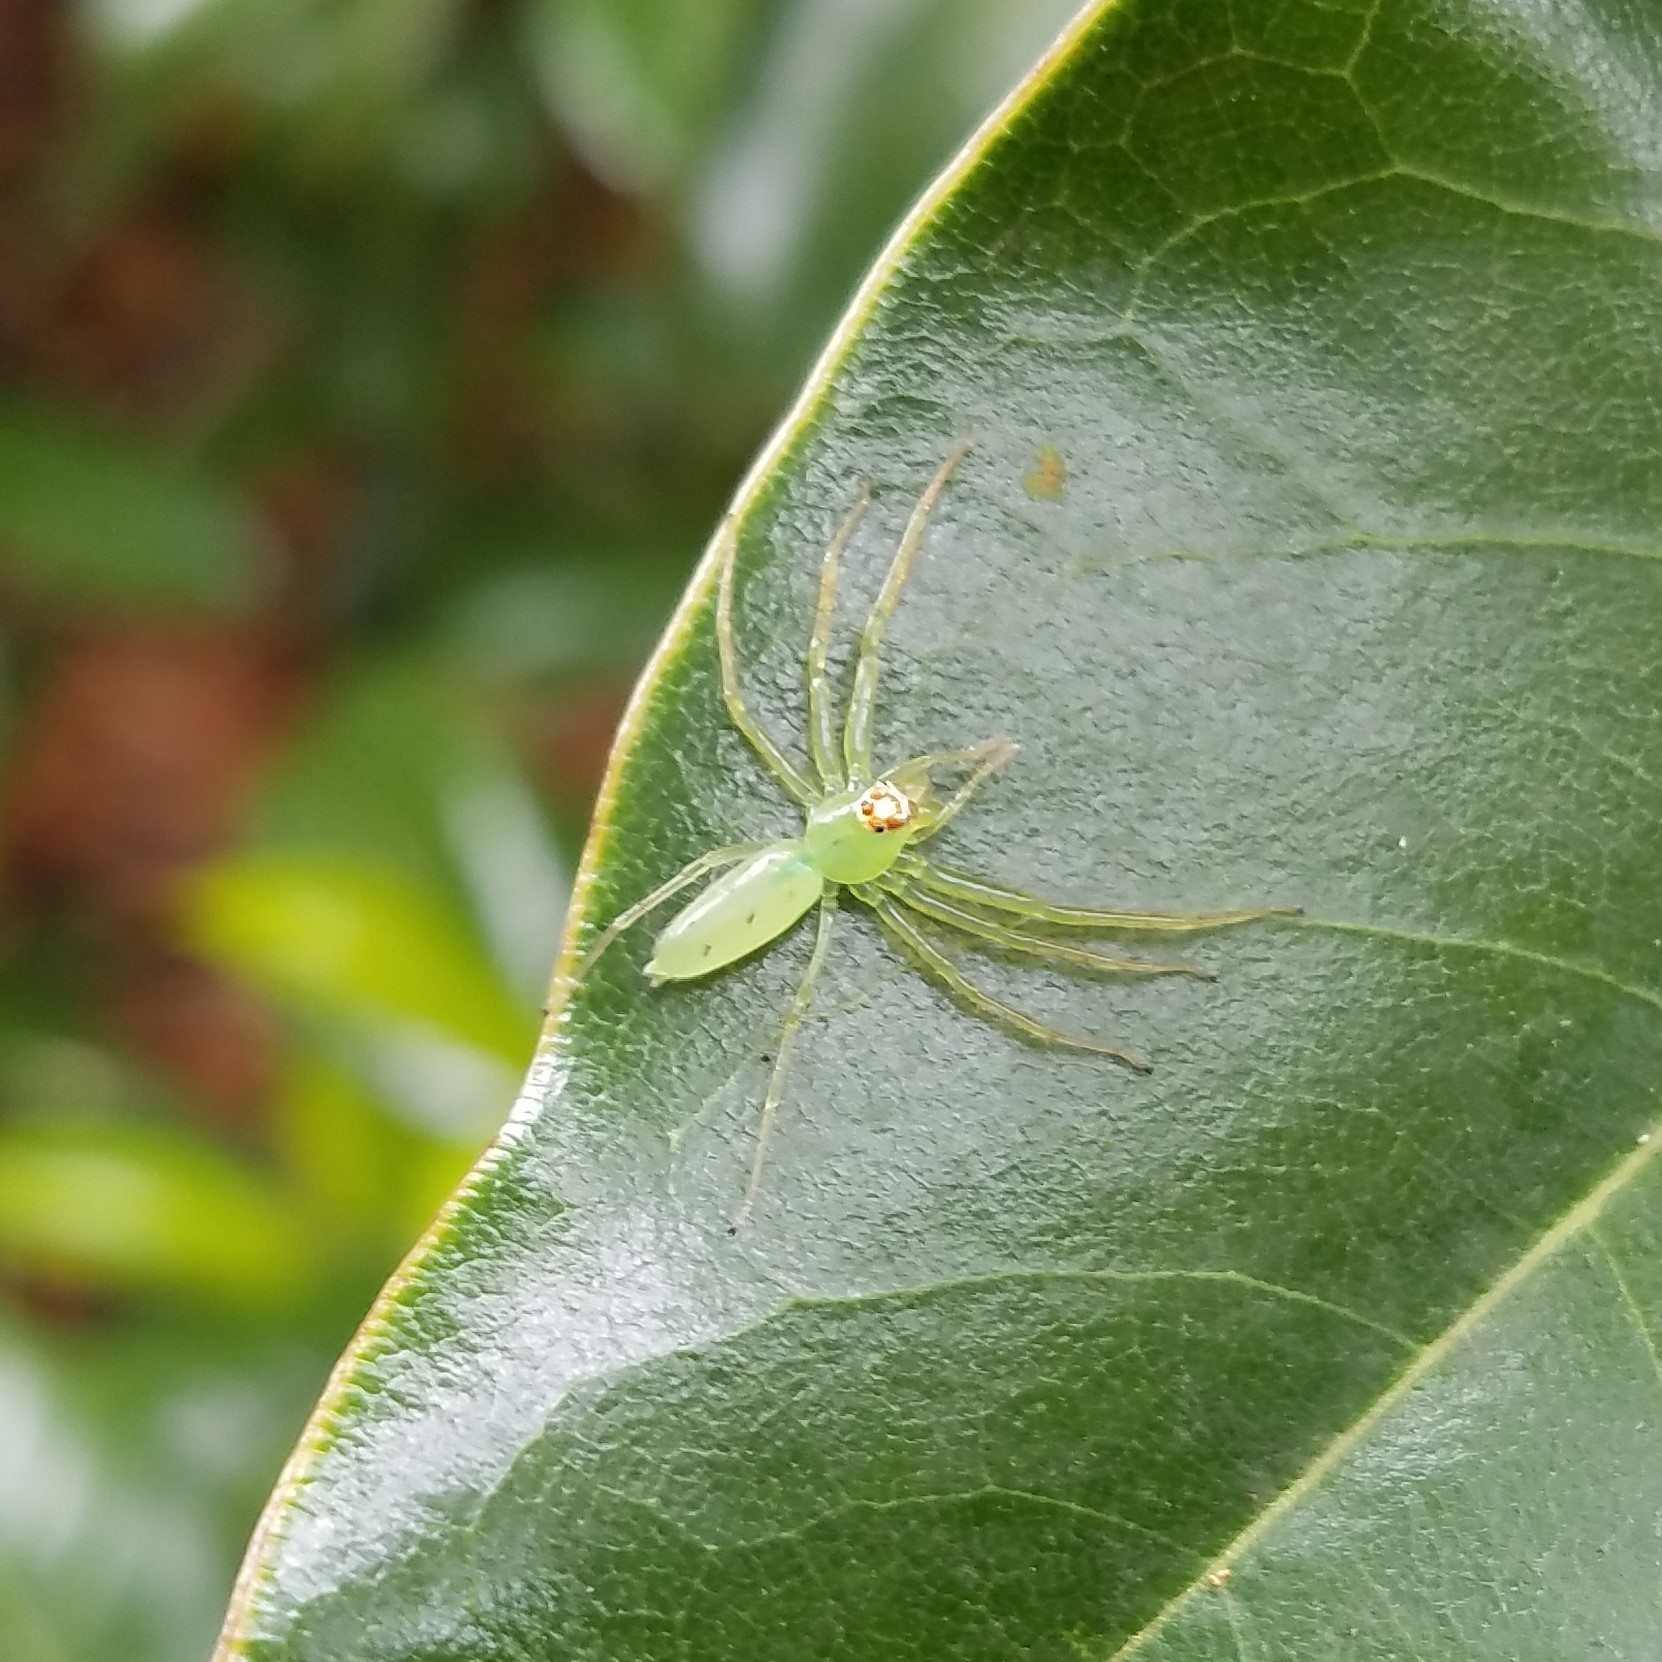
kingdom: Animalia
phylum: Arthropoda
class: Arachnida
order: Araneae
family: Salticidae
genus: Lyssomanes
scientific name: Lyssomanes viridis
